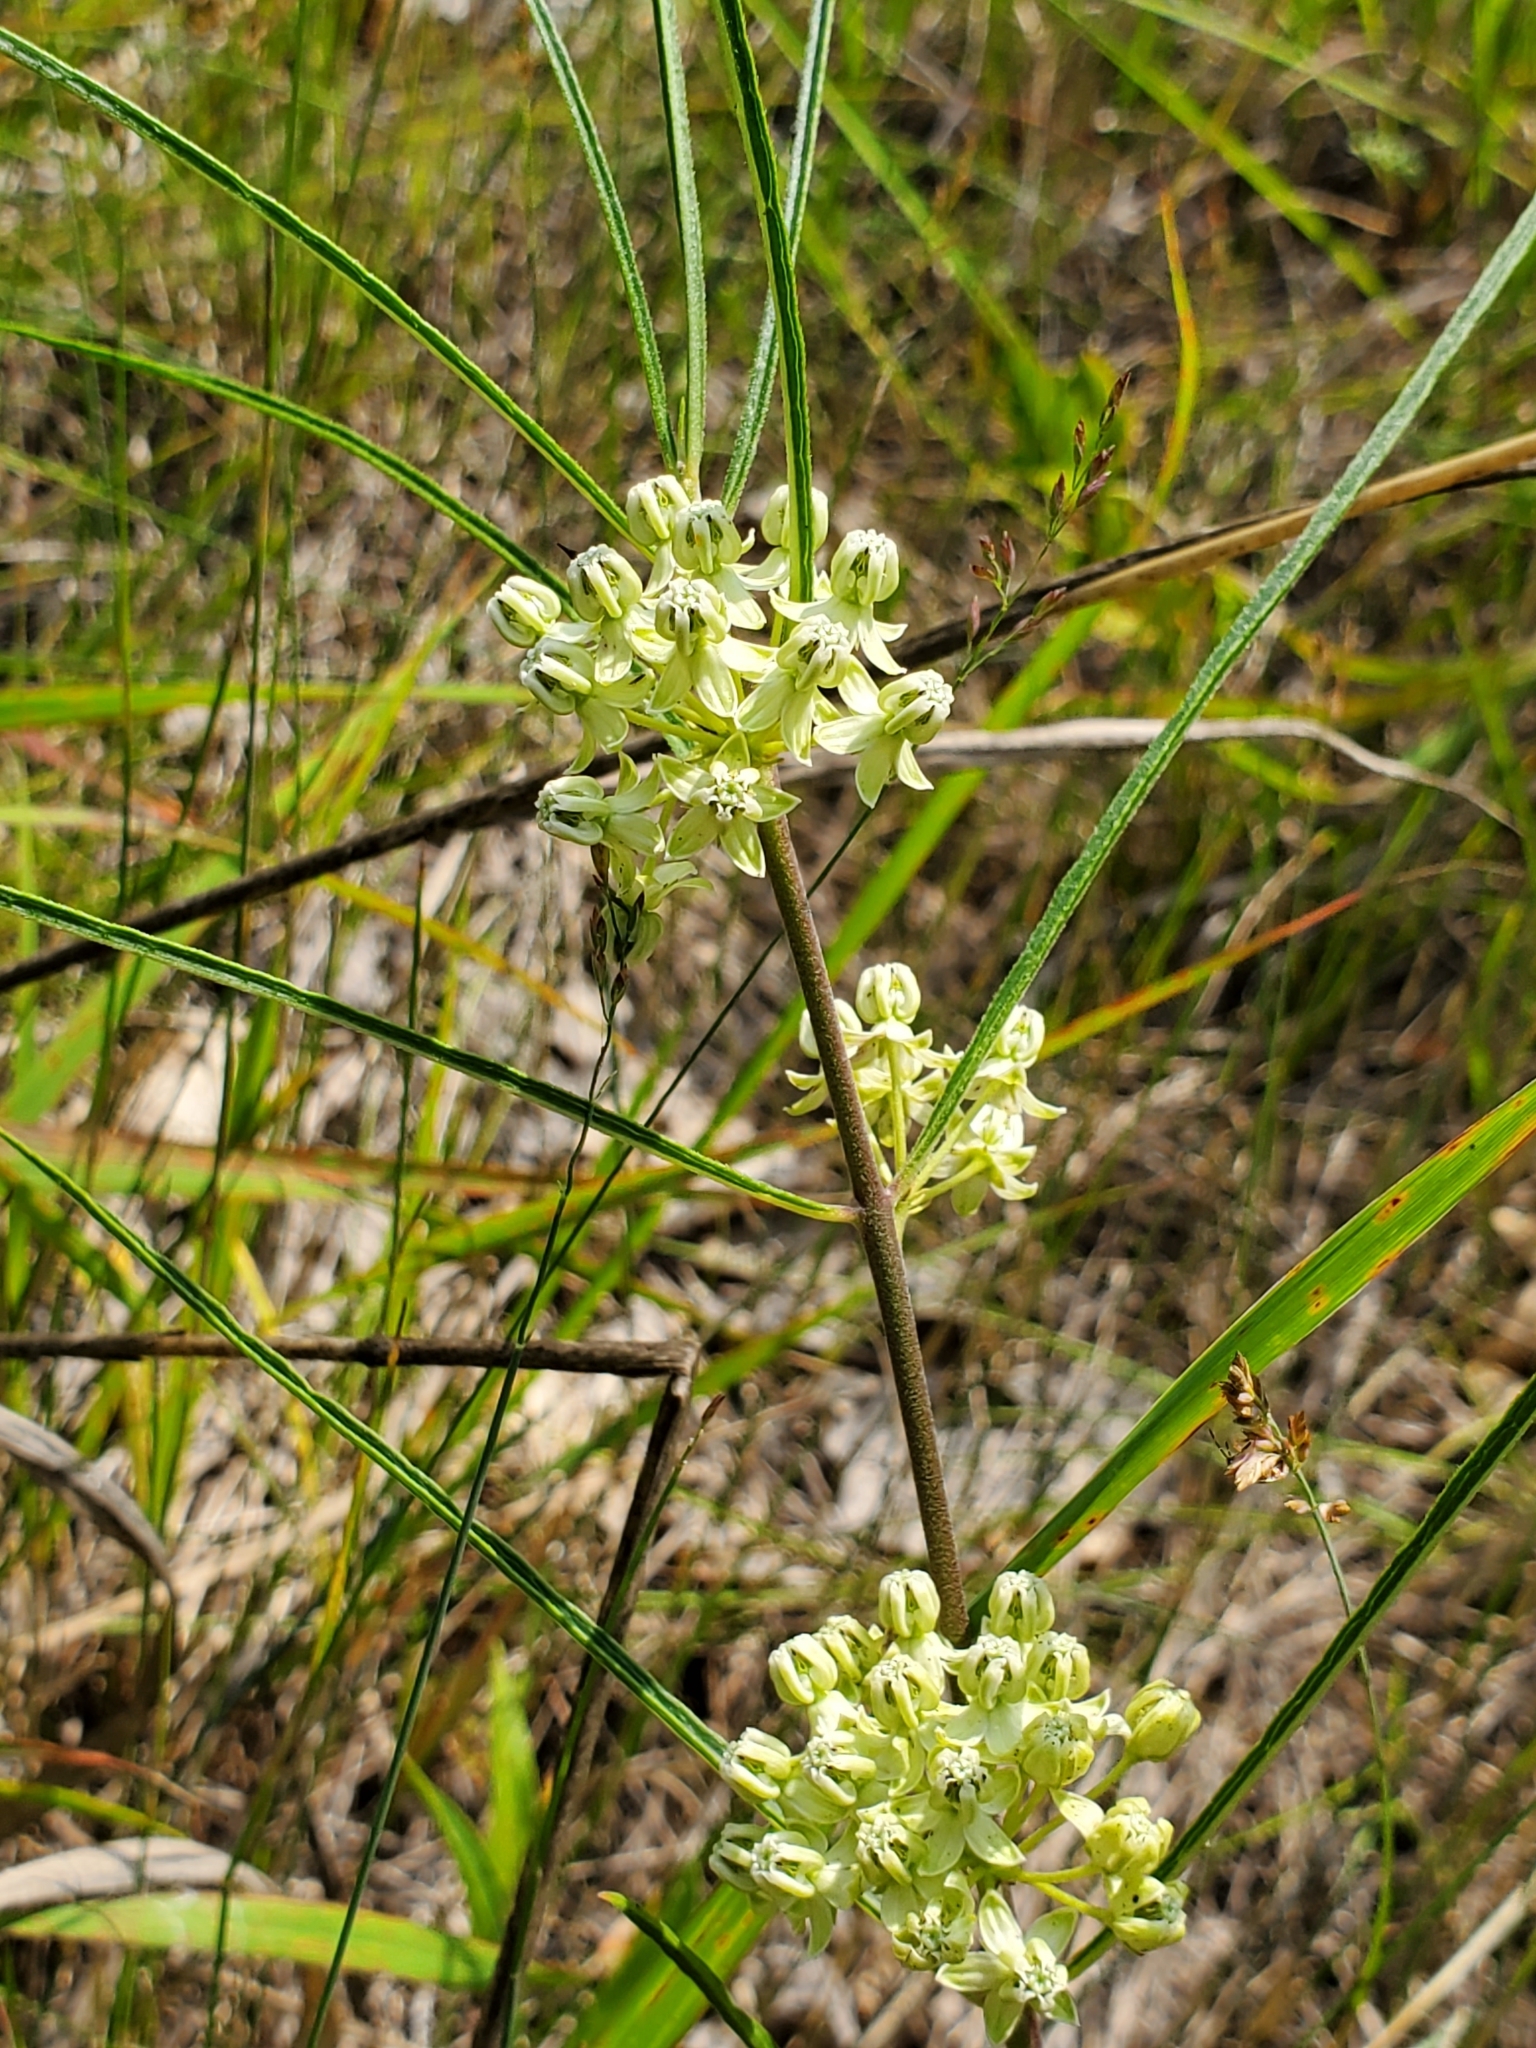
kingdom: Plantae
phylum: Tracheophyta
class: Magnoliopsida
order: Gentianales
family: Apocynaceae
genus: Asclepias
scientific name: Asclepias stenophylla
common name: Narrow-leaf milkweed
